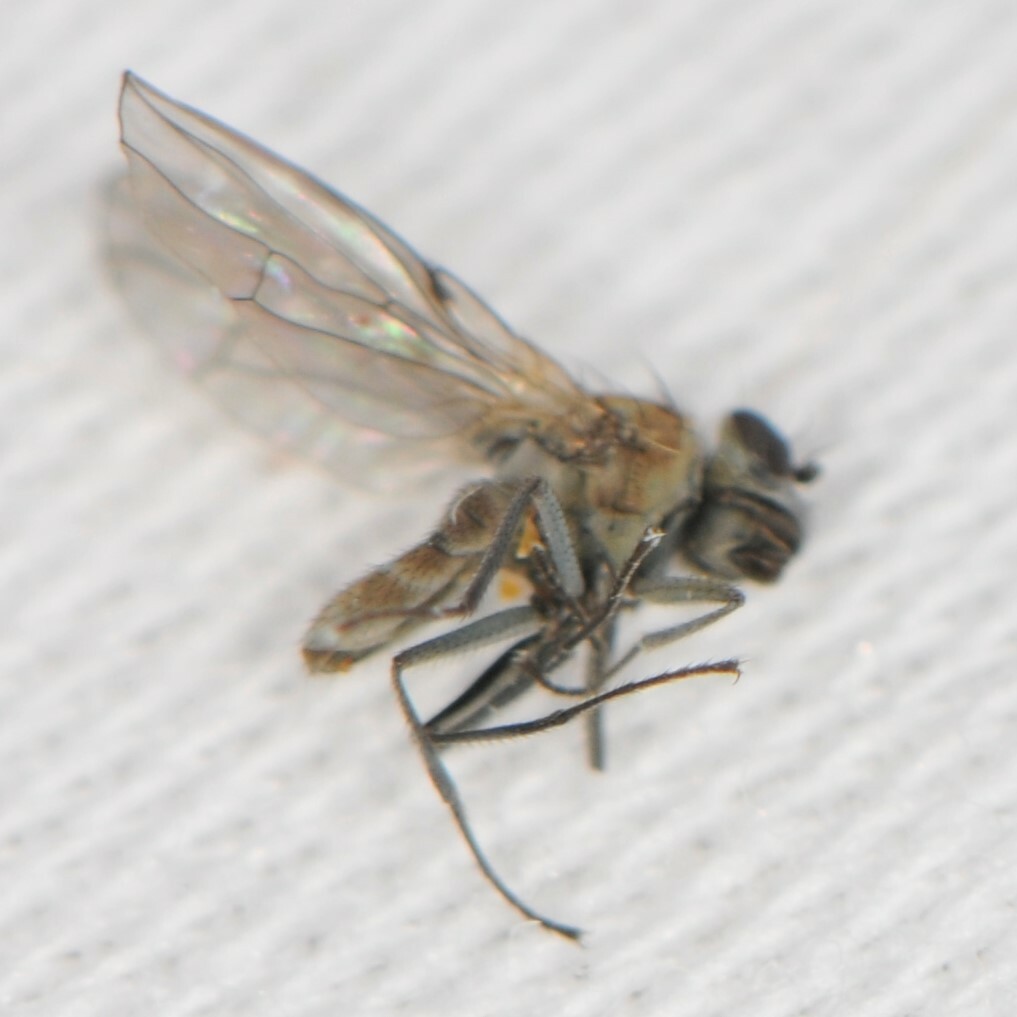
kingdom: Animalia
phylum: Arthropoda
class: Insecta
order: Diptera
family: Ephydridae
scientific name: Ephydridae
